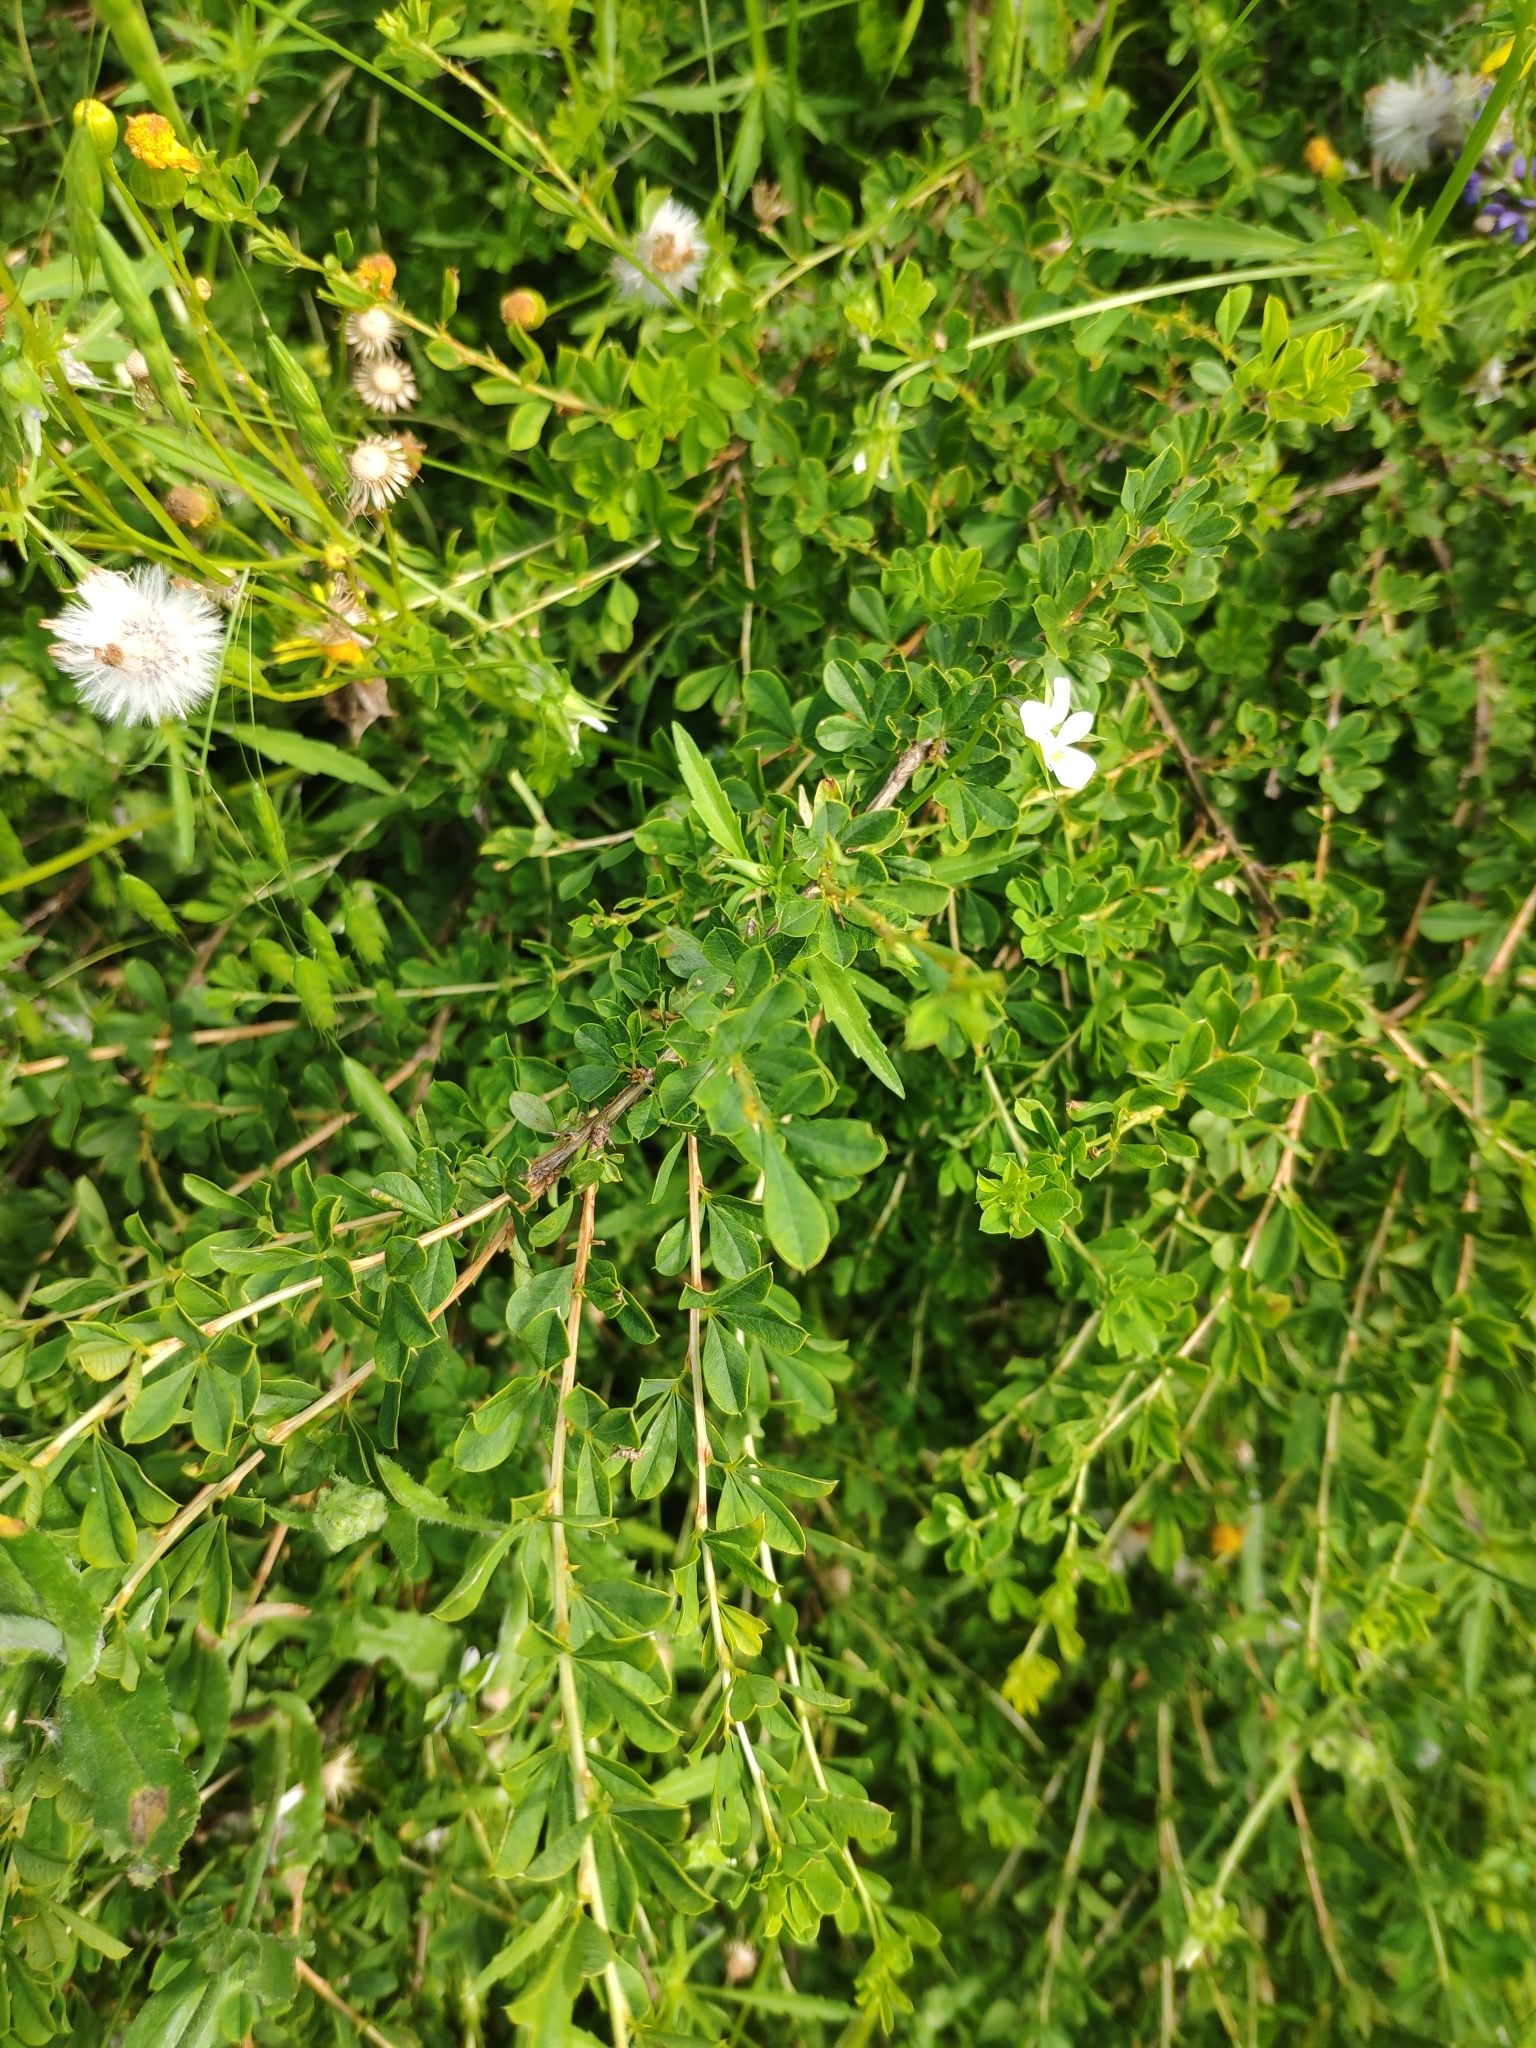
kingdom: Plantae
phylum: Tracheophyta
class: Magnoliopsida
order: Fabales
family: Fabaceae
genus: Caragana
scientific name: Caragana frutex
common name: Russian peashrub
